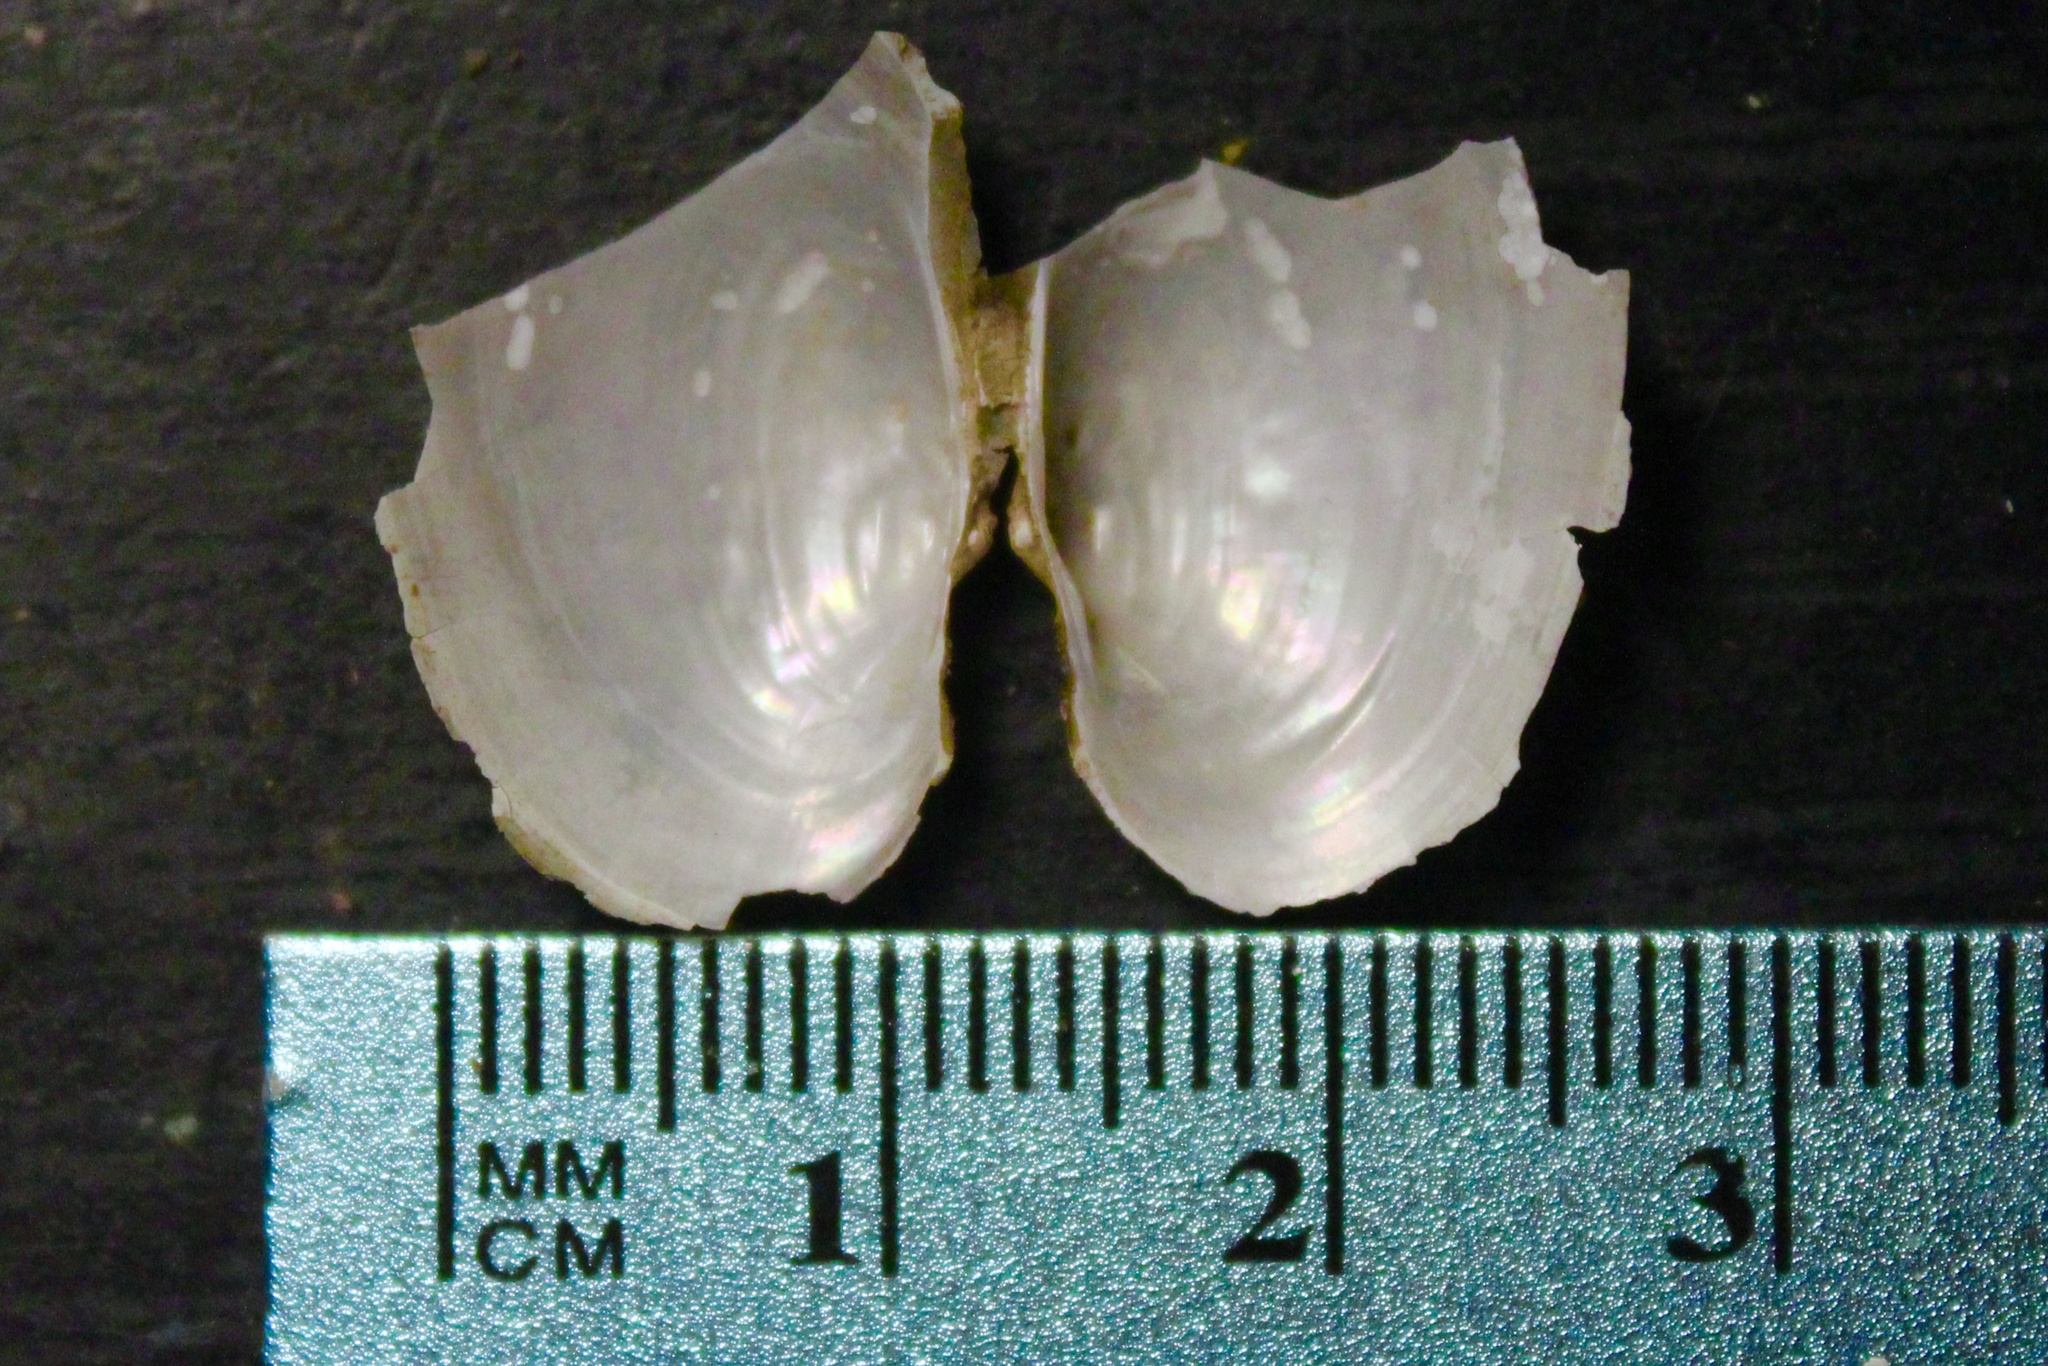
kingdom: Animalia
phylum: Mollusca
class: Bivalvia
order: Unionida
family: Unionidae
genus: Pyganodon
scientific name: Pyganodon grandis
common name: Giant floater
